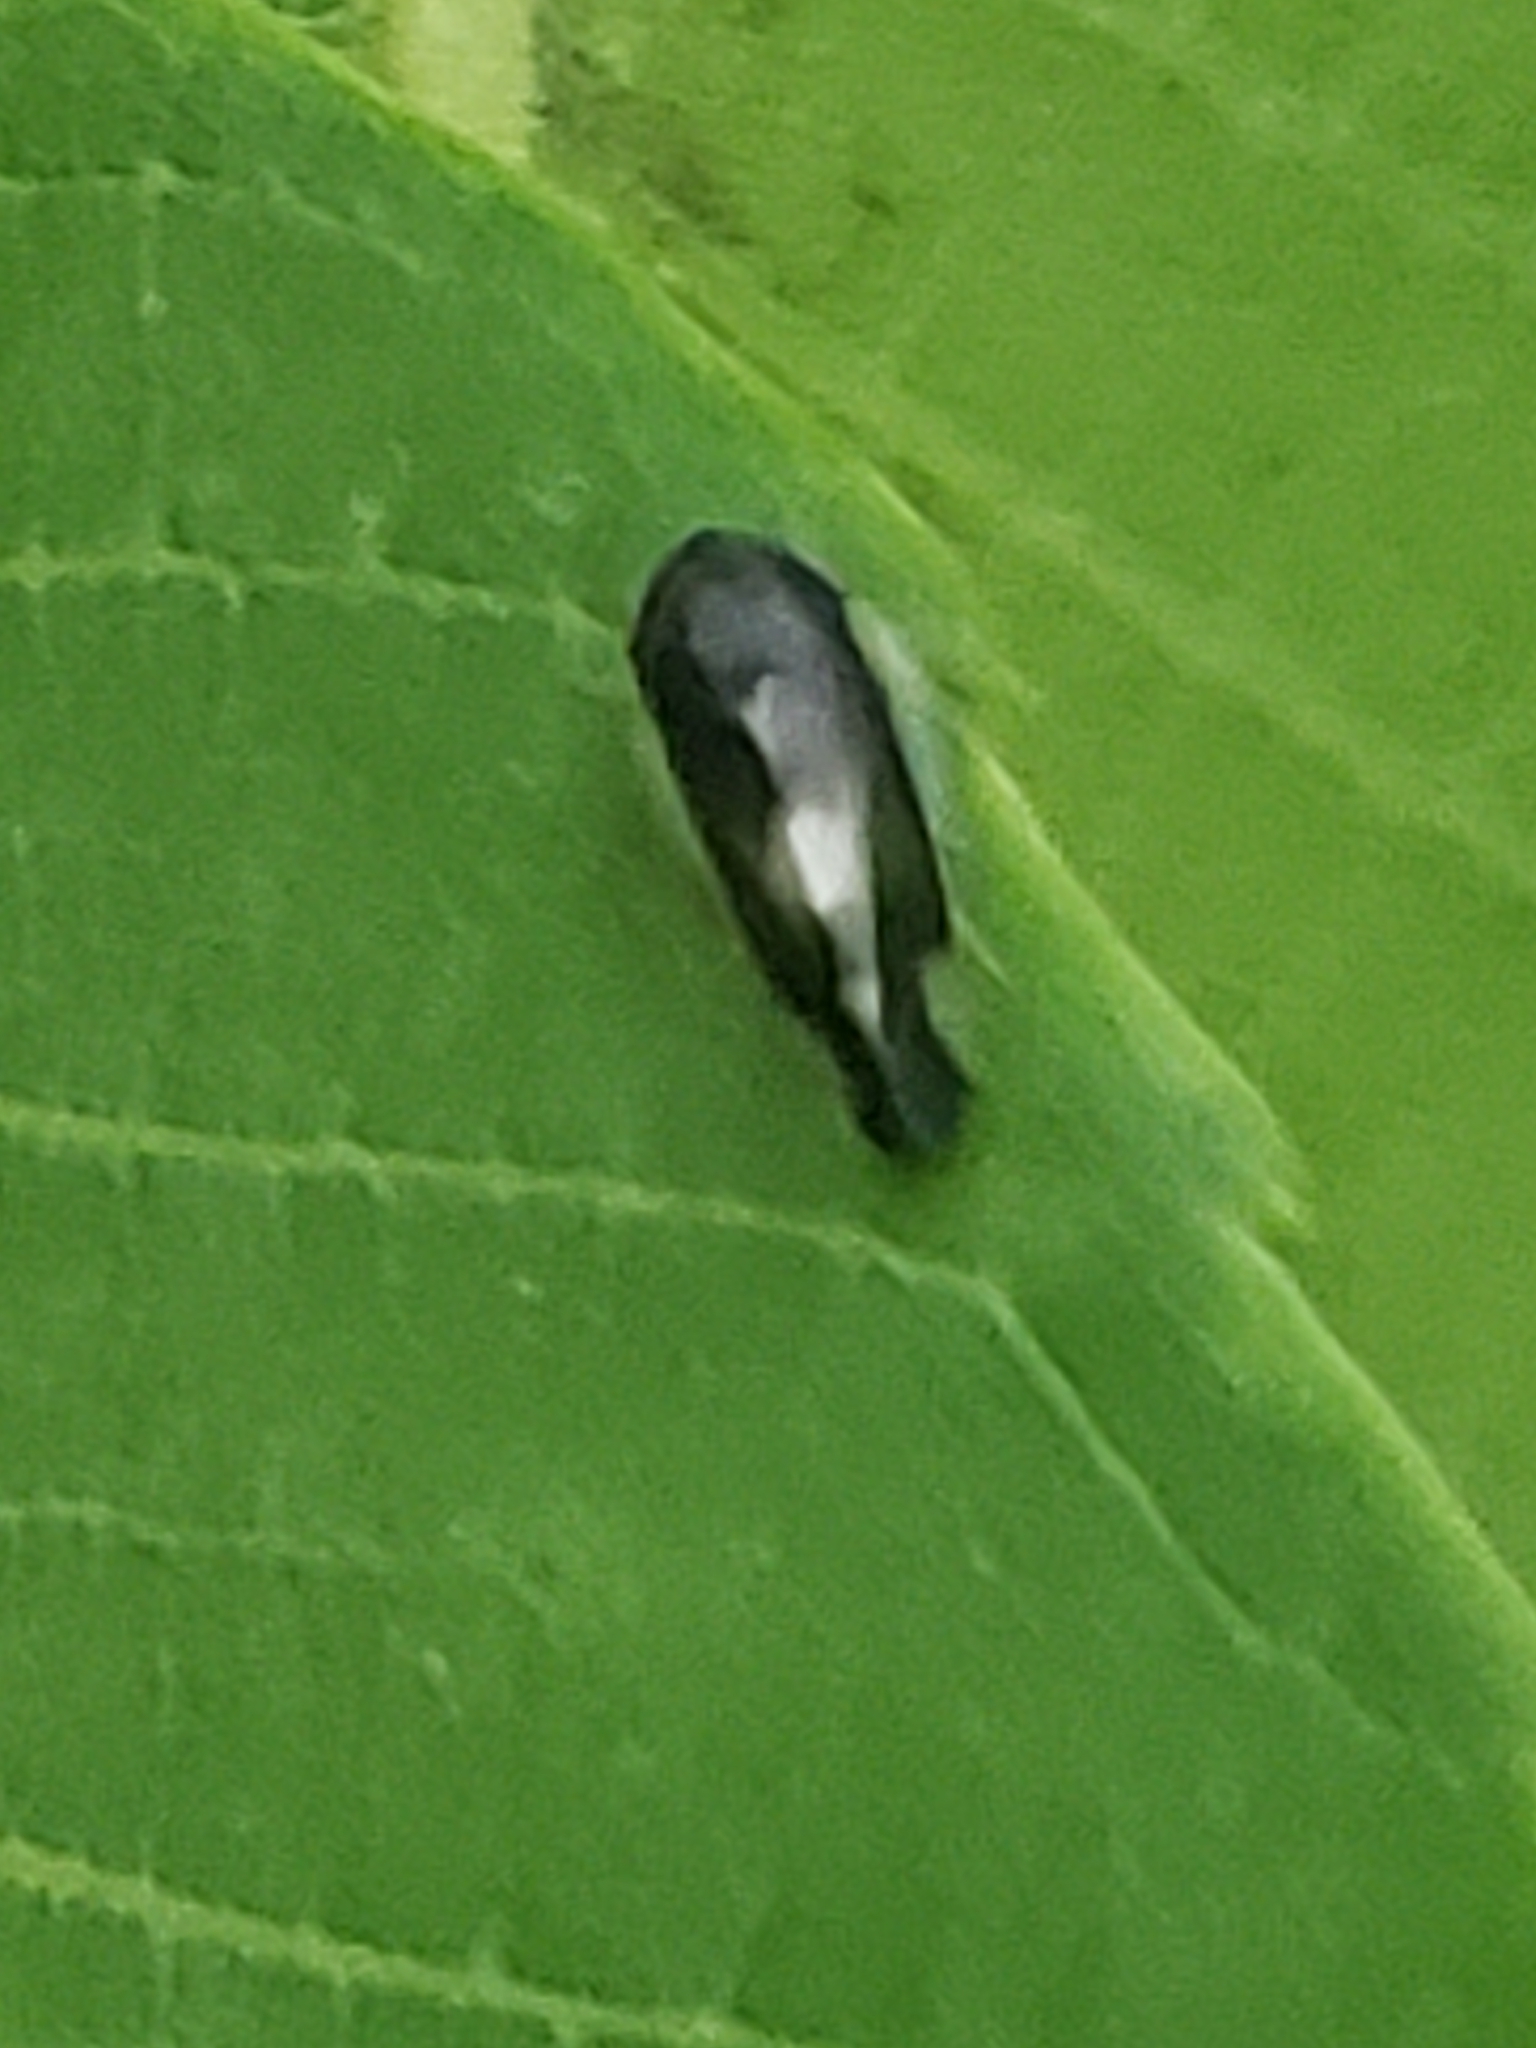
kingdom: Animalia
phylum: Arthropoda
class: Insecta
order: Hemiptera
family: Cicadellidae
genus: Pediopsoides
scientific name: Pediopsoides distinctus
